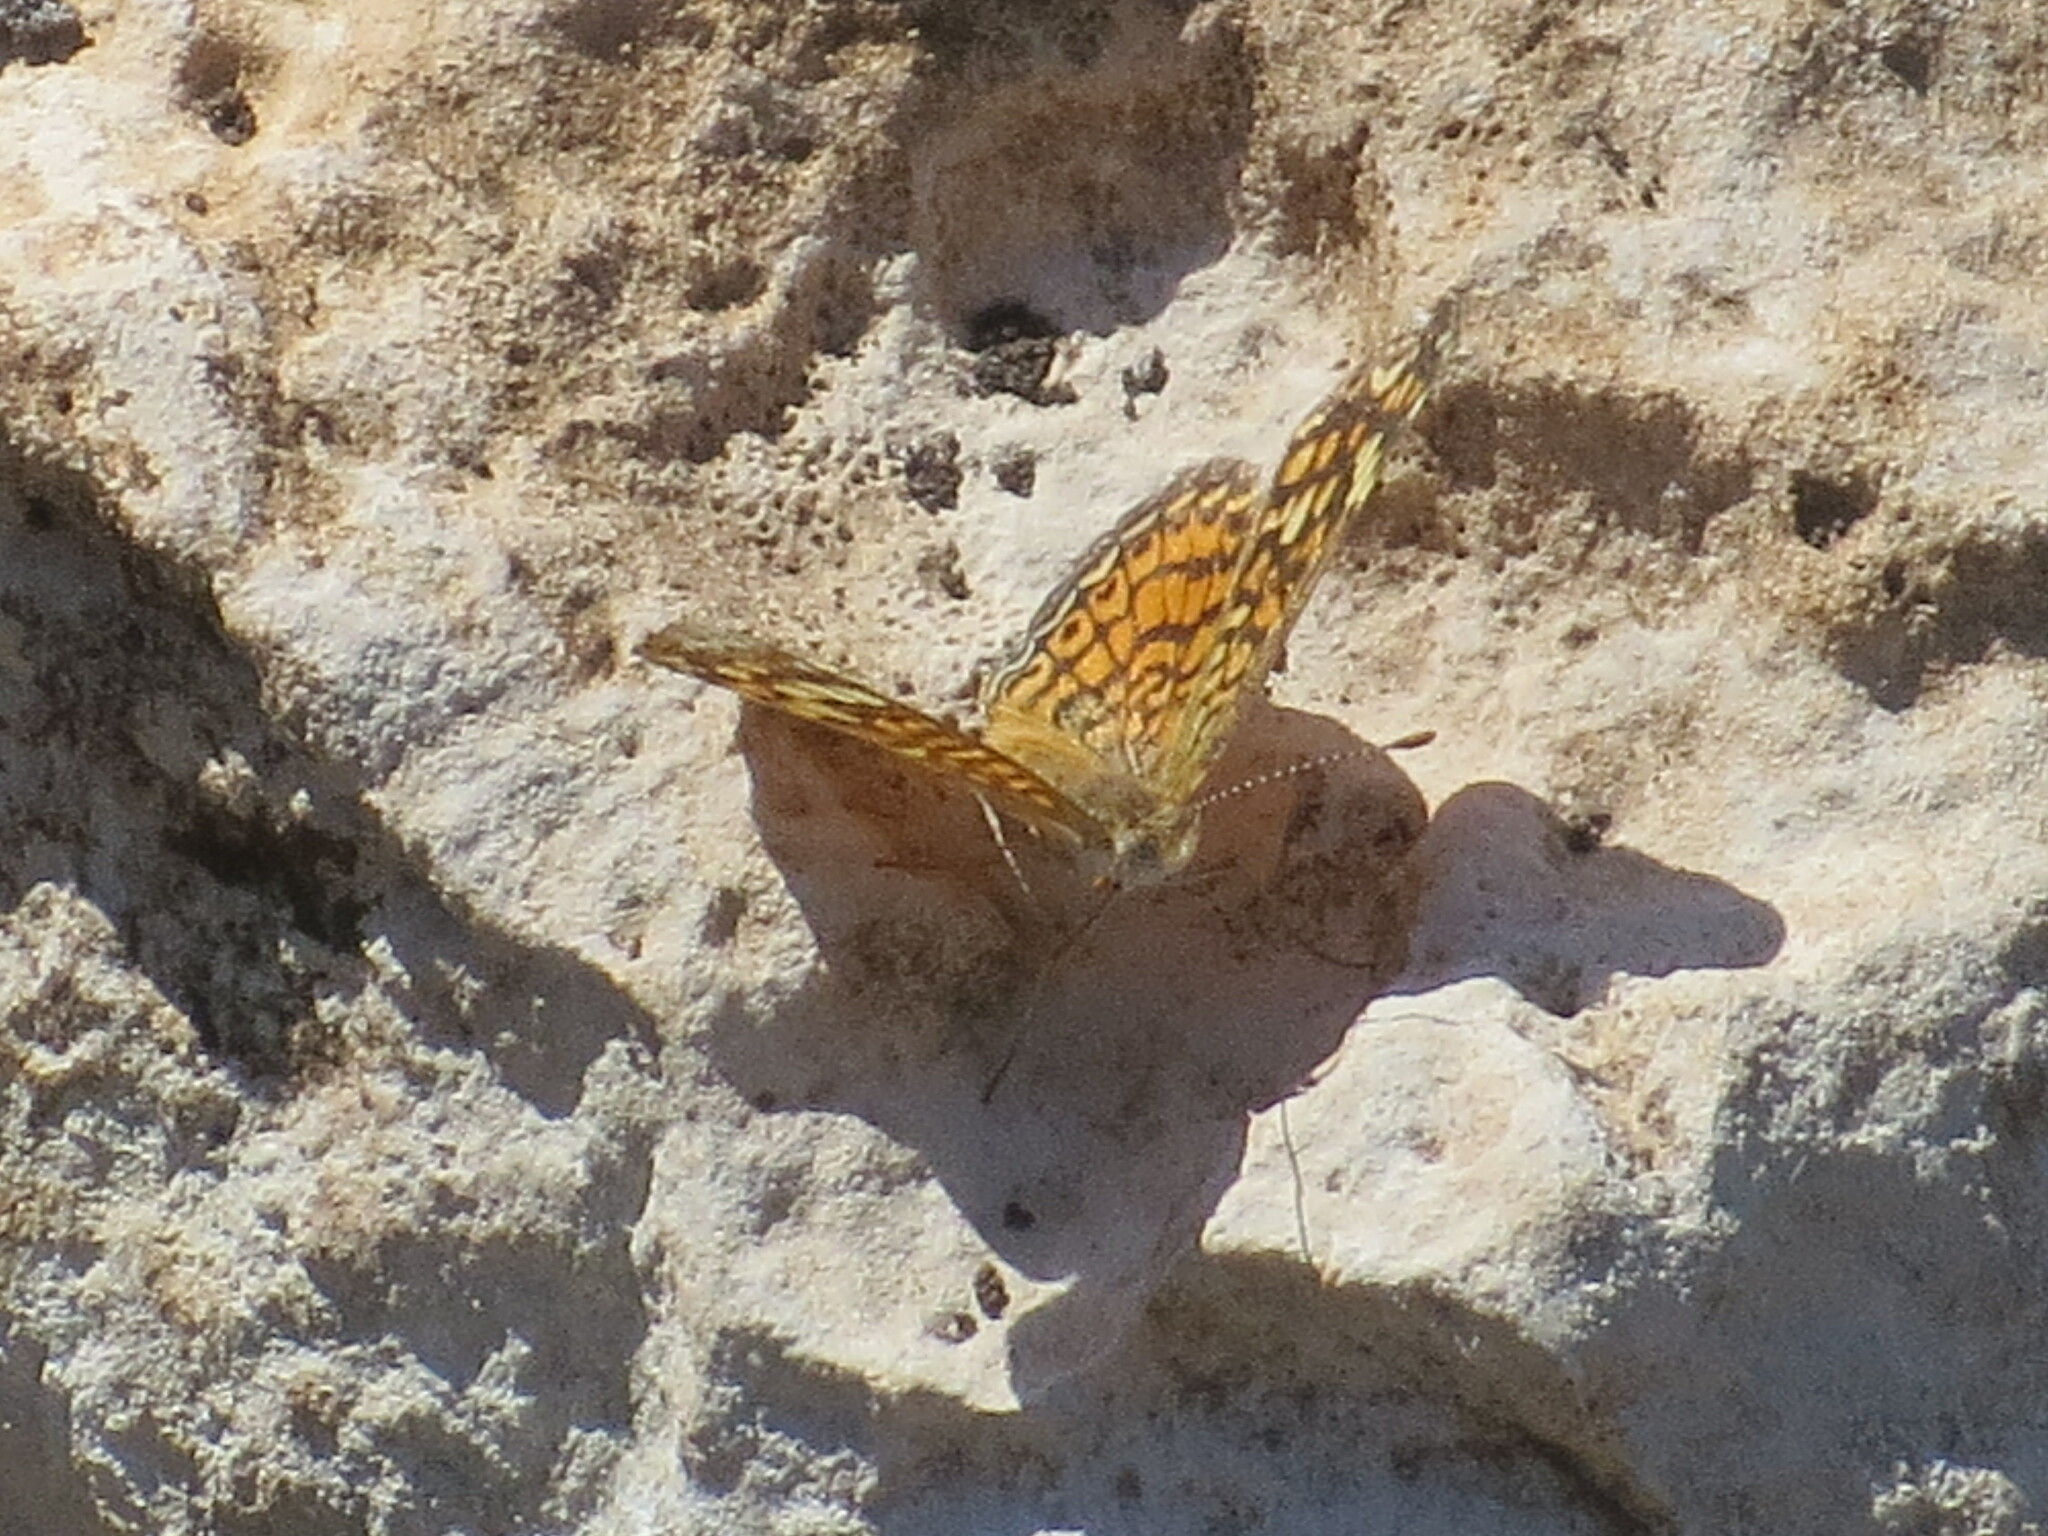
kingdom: Animalia
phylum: Arthropoda
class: Insecta
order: Lepidoptera
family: Nymphalidae
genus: Phyciodes
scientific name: Phyciodes vesta
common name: Vesta crescent
